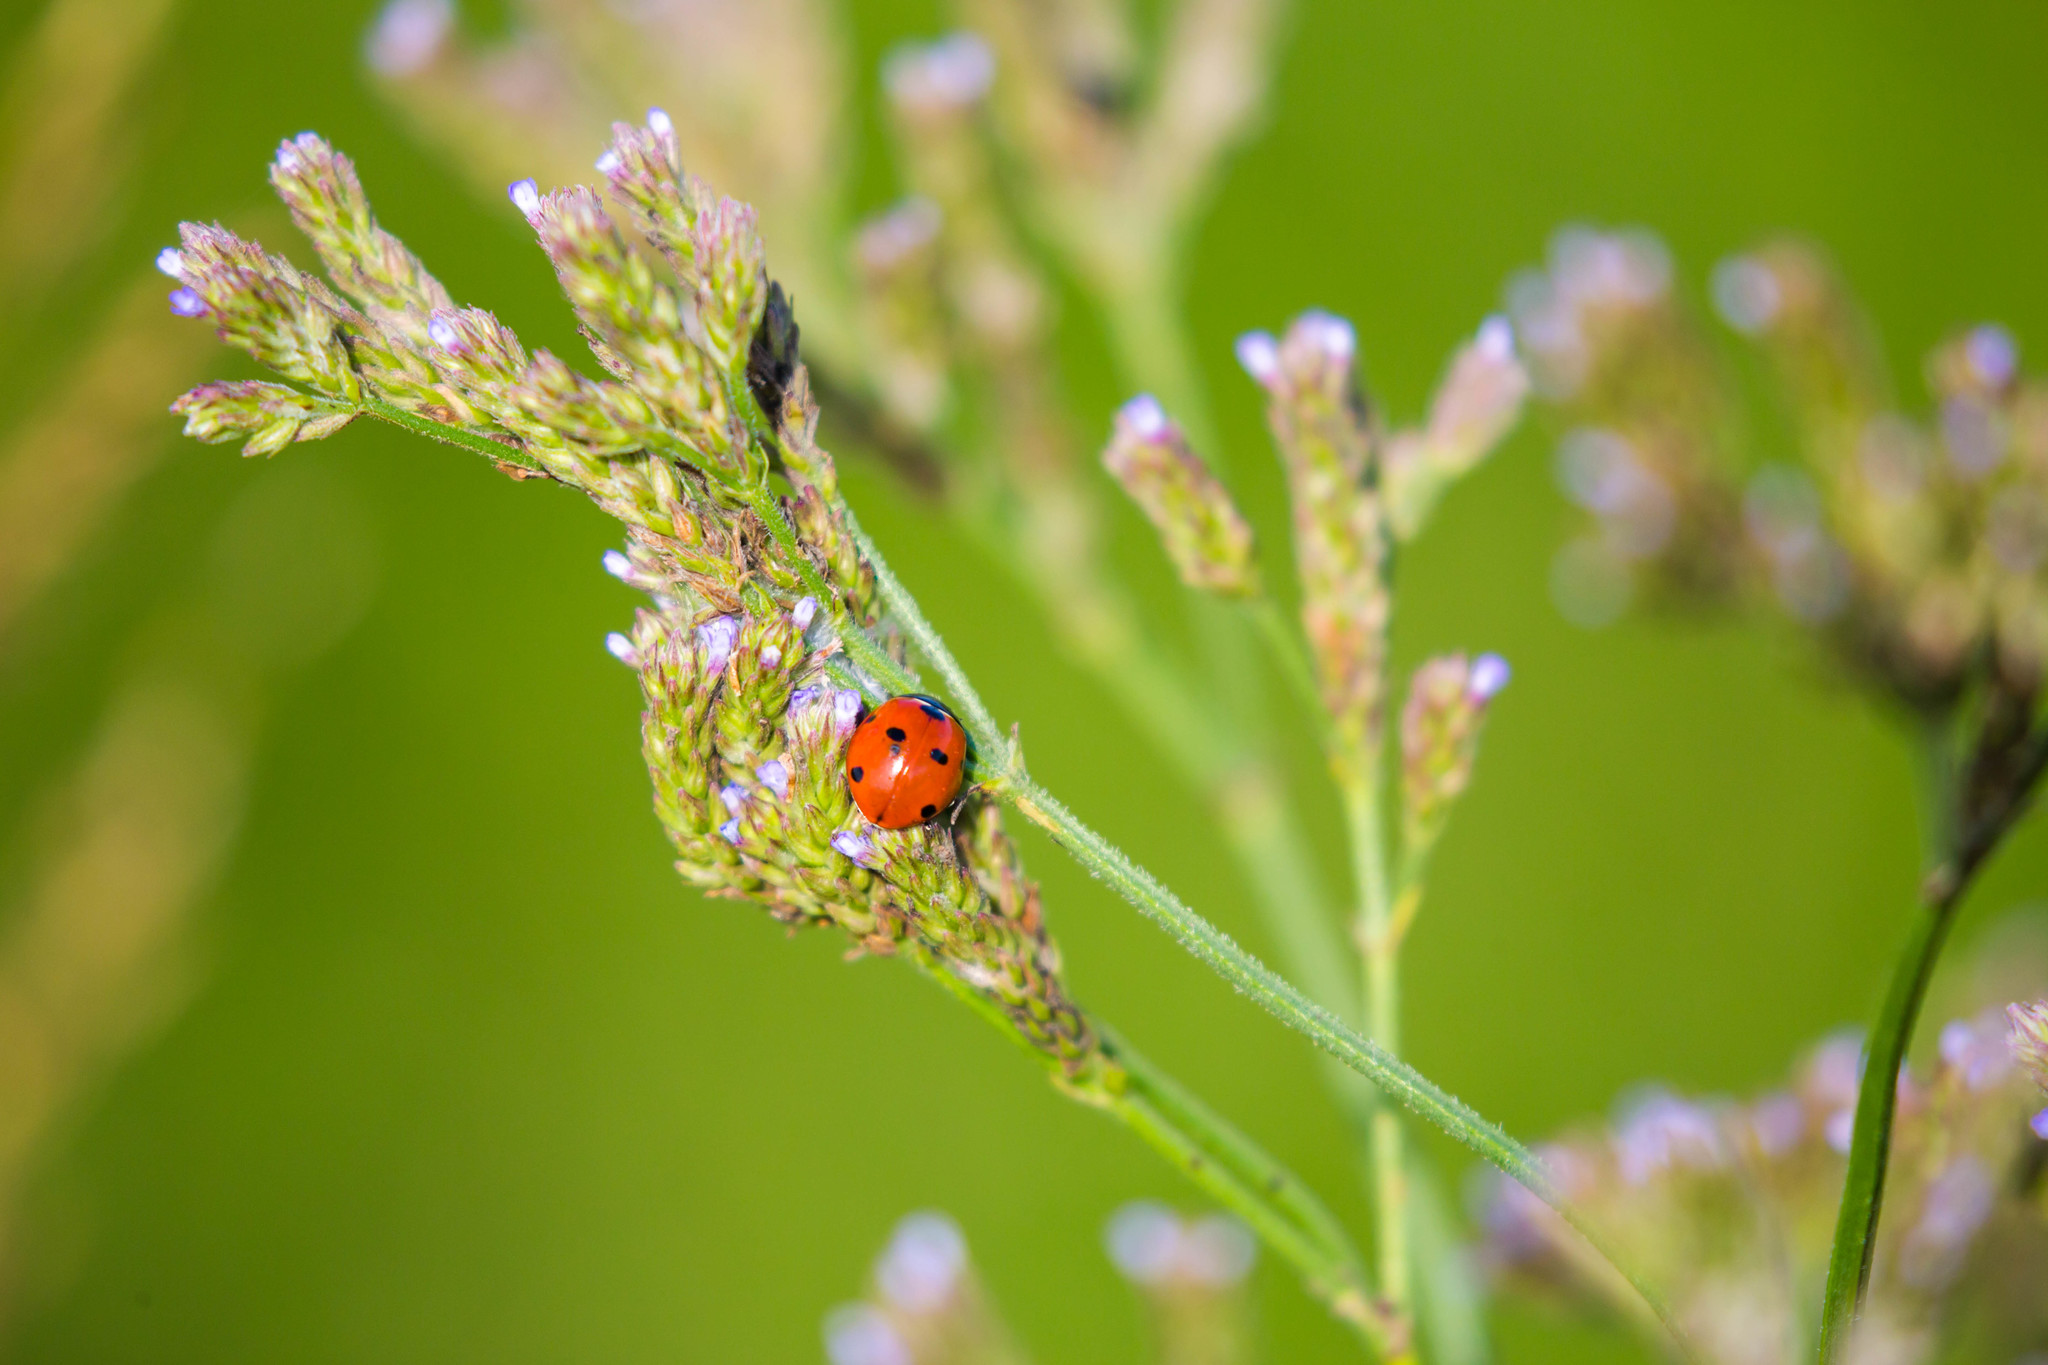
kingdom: Animalia
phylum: Arthropoda
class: Insecta
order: Coleoptera
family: Coccinellidae
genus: Coccinella
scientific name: Coccinella septempunctata
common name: Sevenspotted lady beetle
